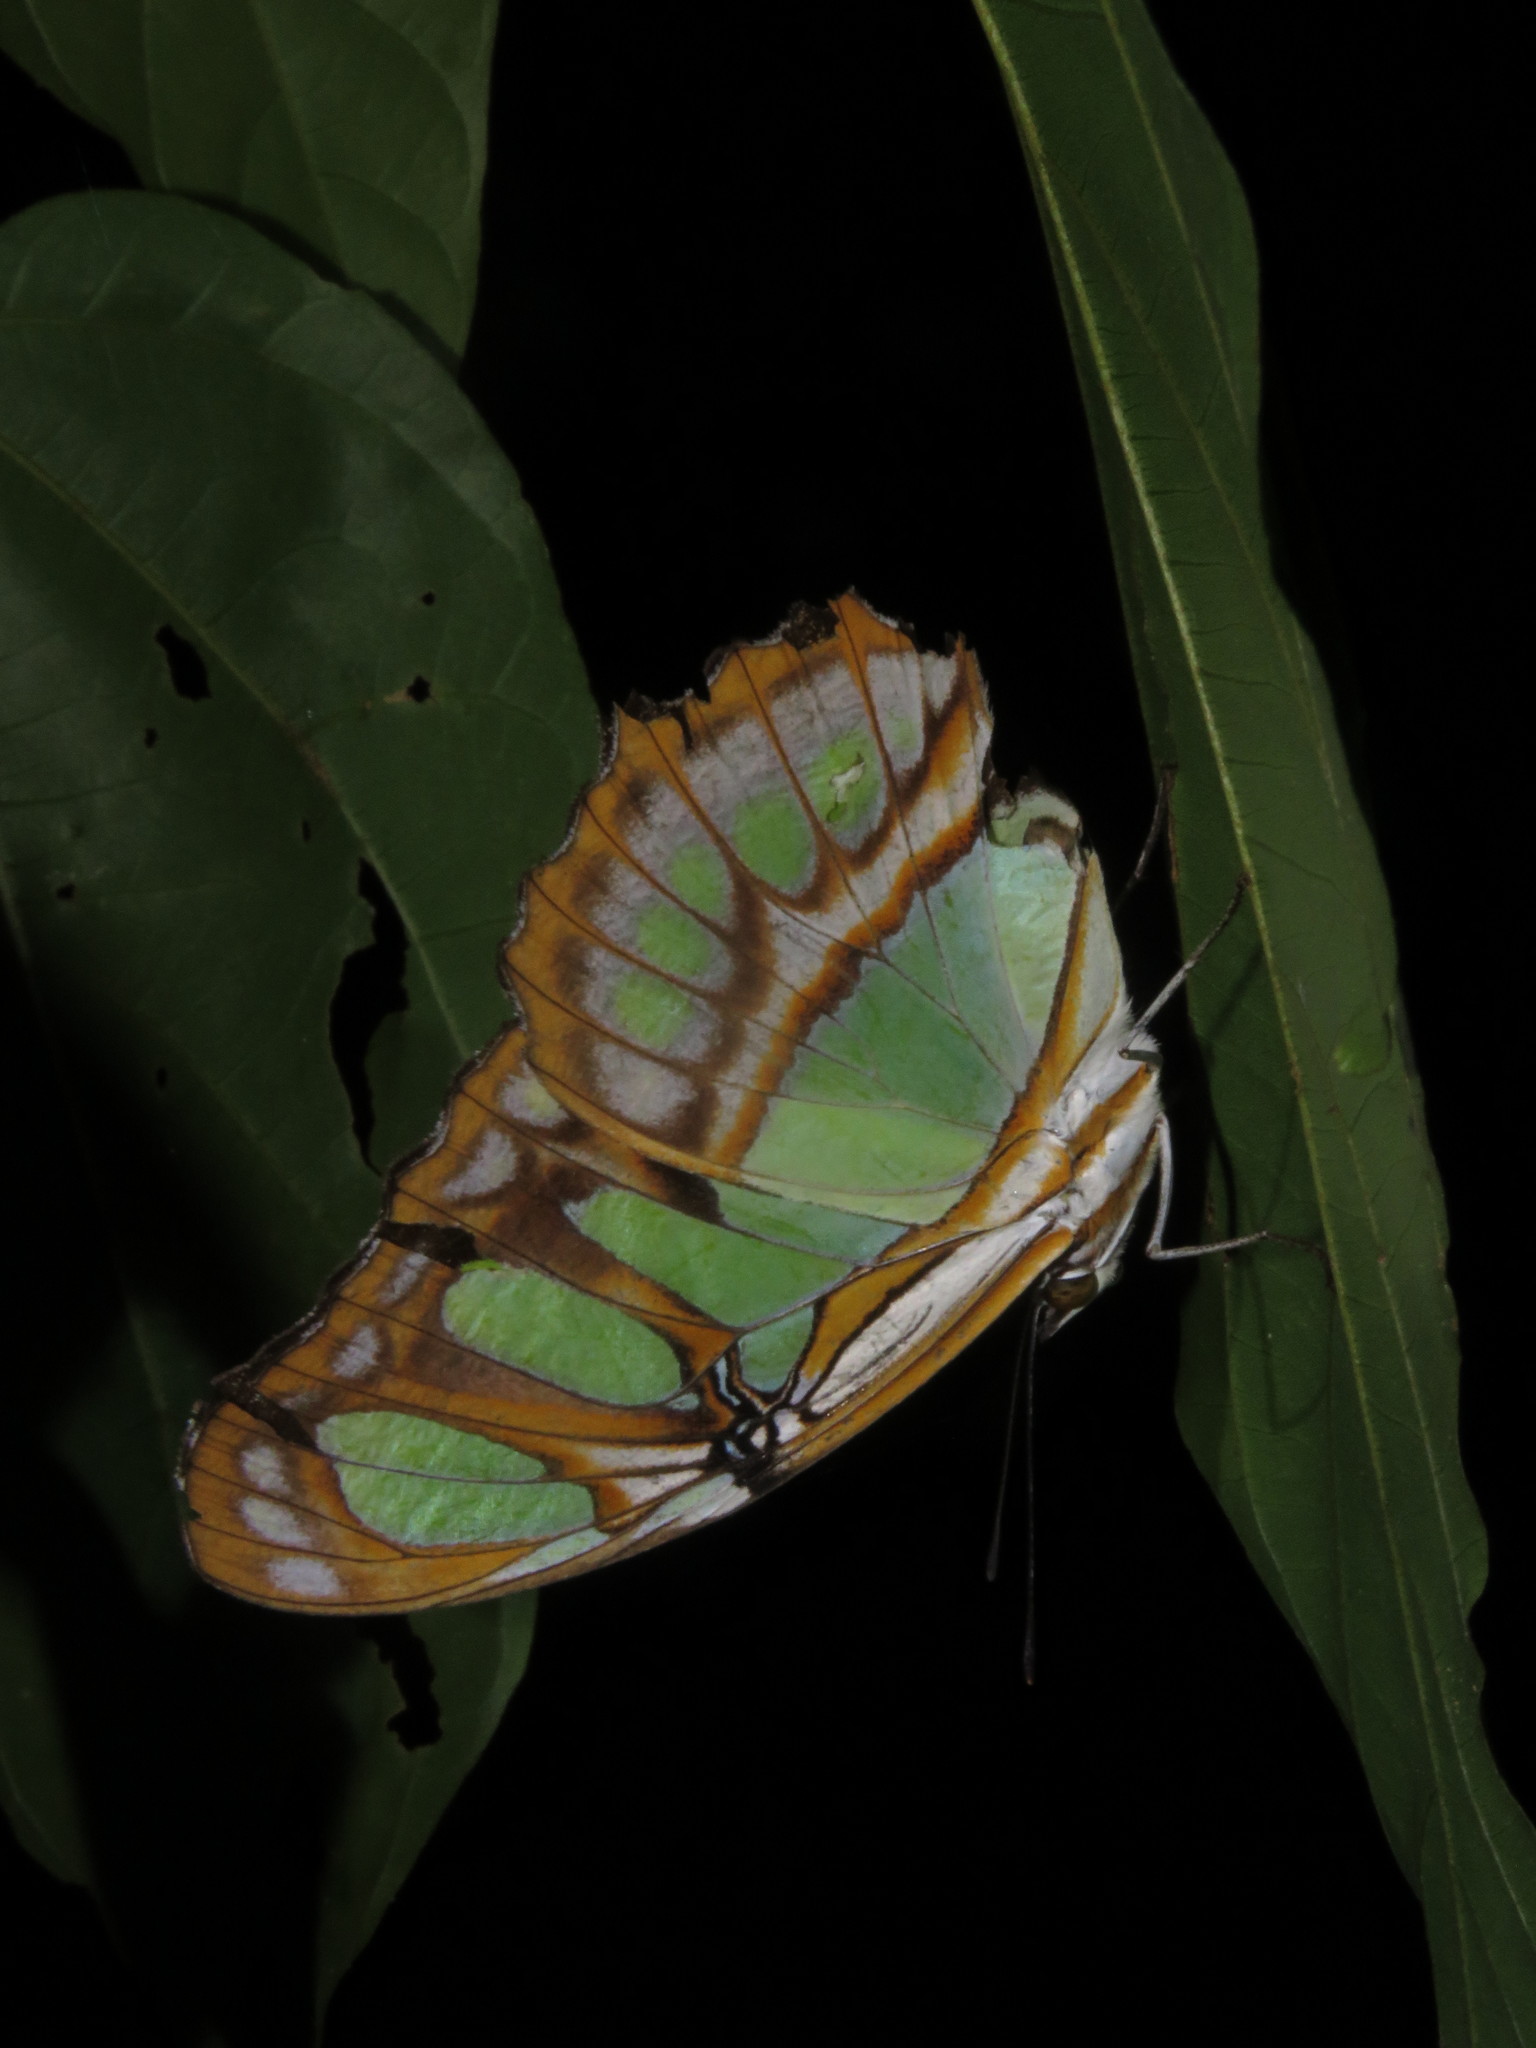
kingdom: Animalia
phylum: Arthropoda
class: Insecta
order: Lepidoptera
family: Nymphalidae
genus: Siproeta
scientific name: Siproeta stelenes
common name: Malachite
